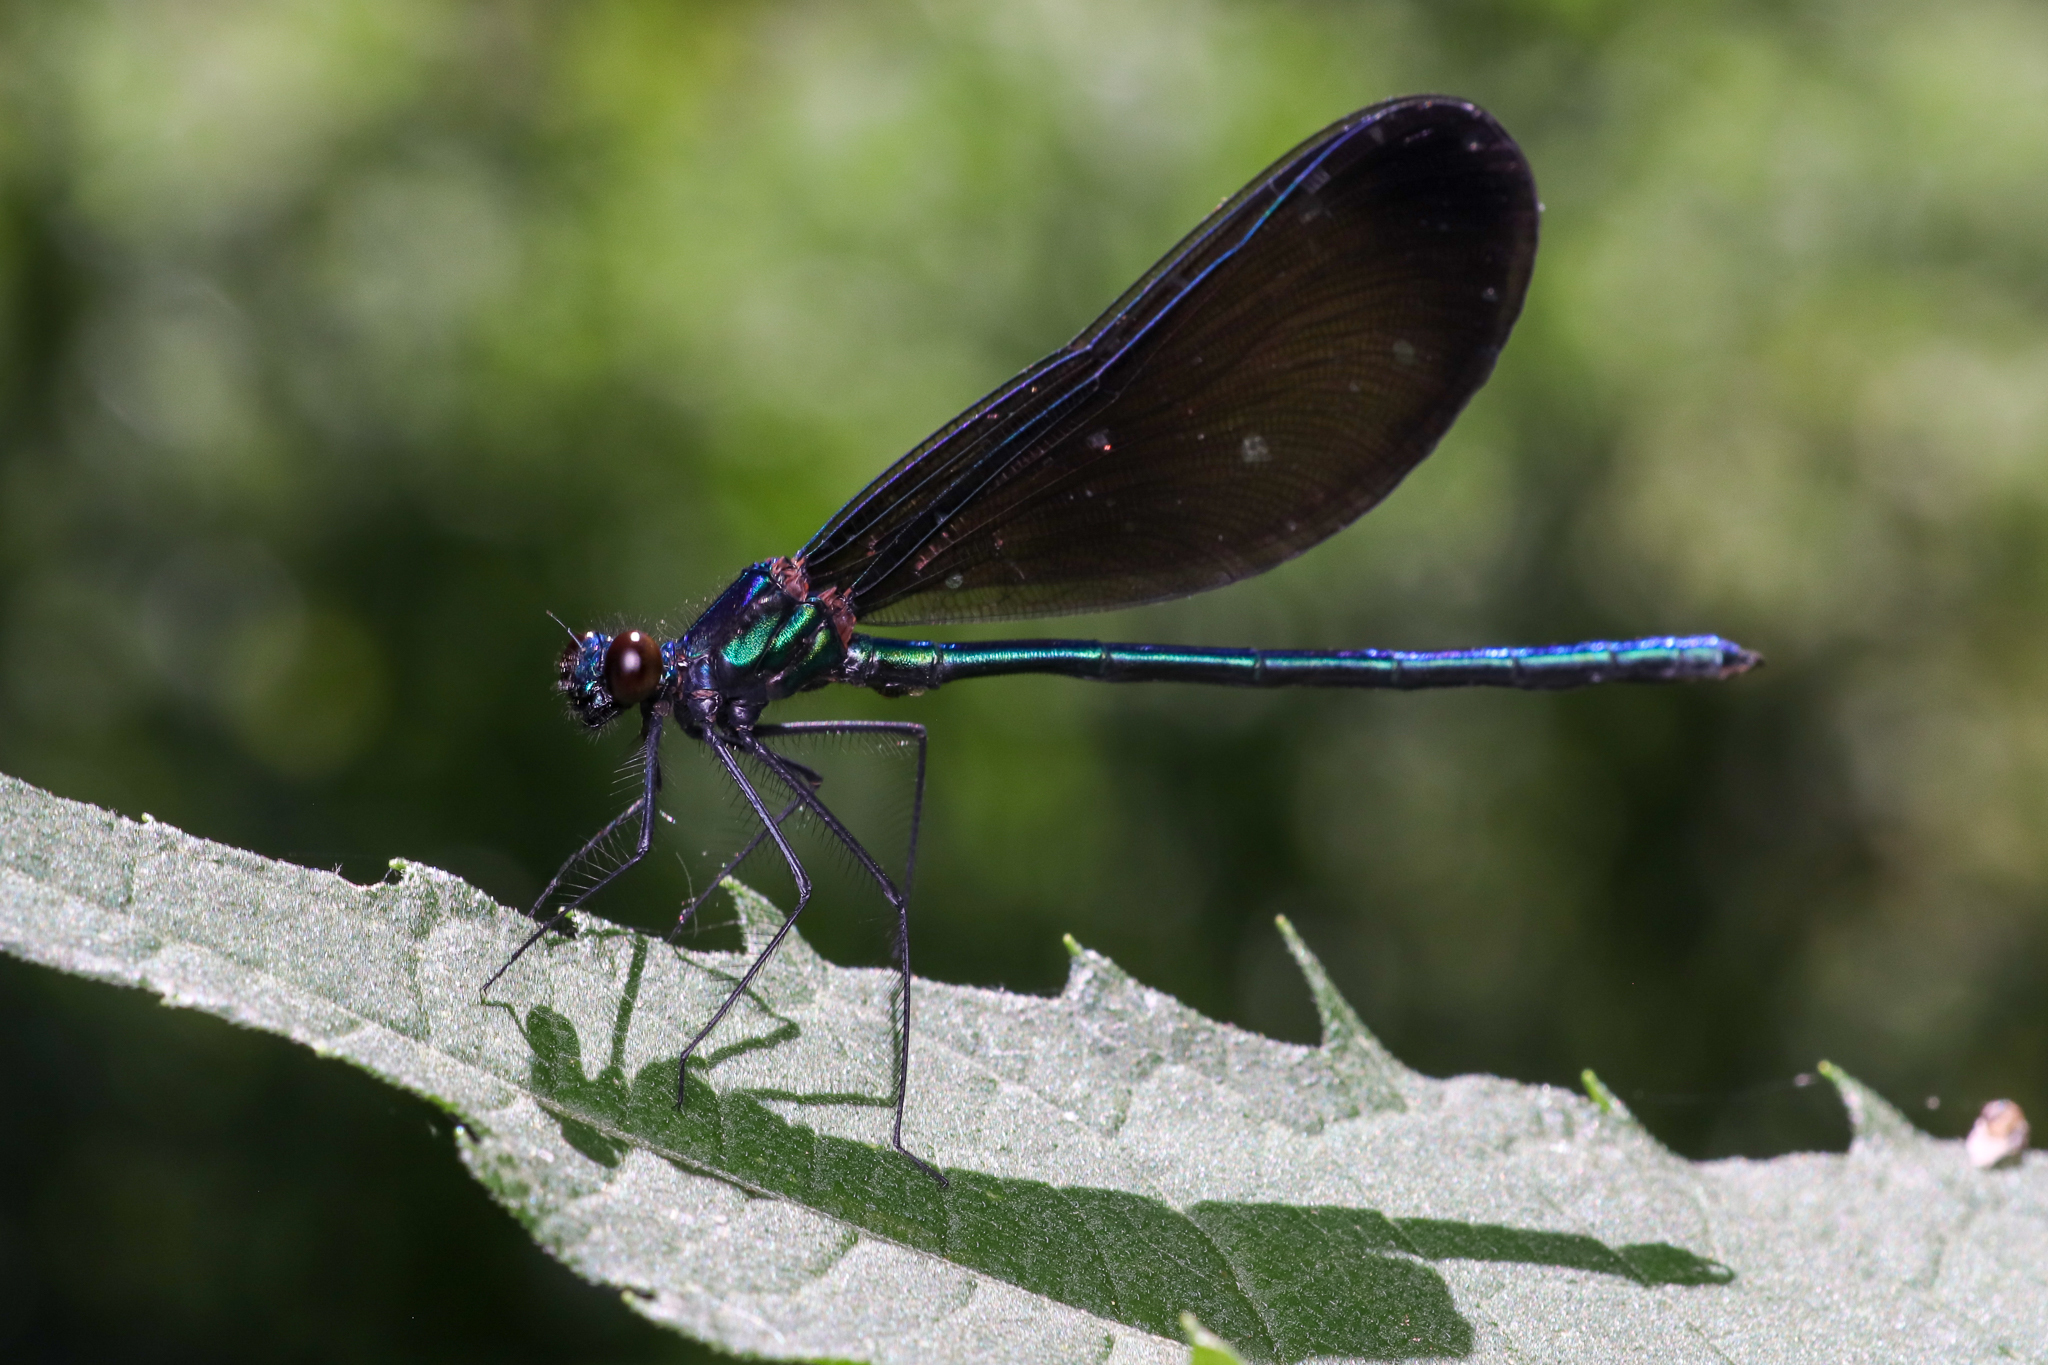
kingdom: Animalia
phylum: Arthropoda
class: Insecta
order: Odonata
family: Calopterygidae
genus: Calopteryx
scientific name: Calopteryx maculata
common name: Ebony jewelwing
